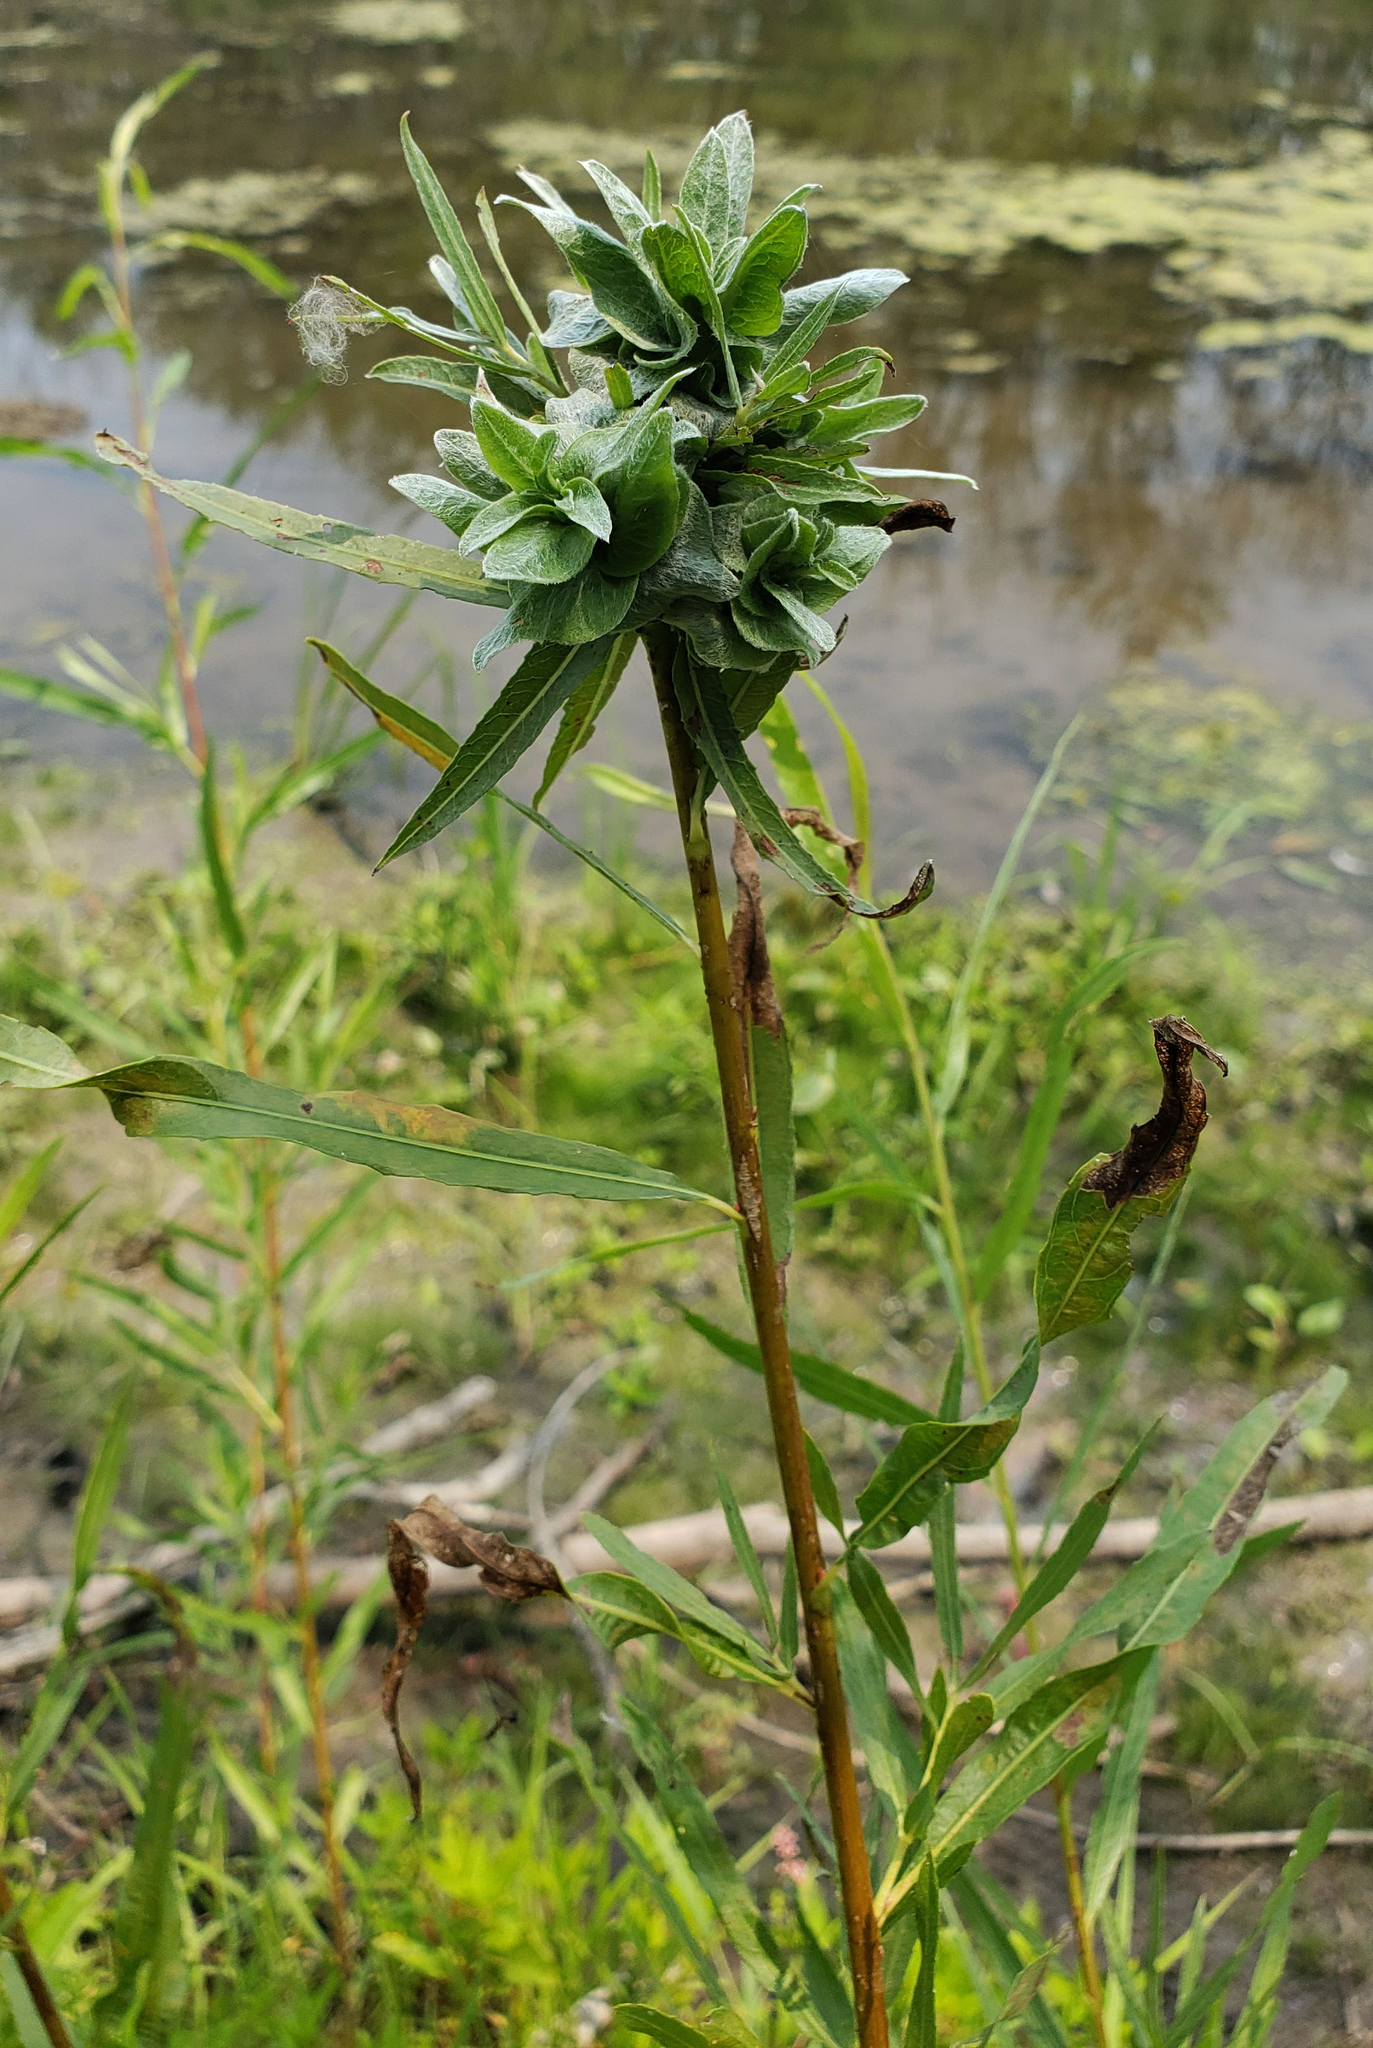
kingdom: Animalia
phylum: Arthropoda
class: Insecta
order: Diptera
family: Cecidomyiidae
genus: Rabdophaga
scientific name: Rabdophaga salicisbrassicoides
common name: Willow cabbagegall midge
